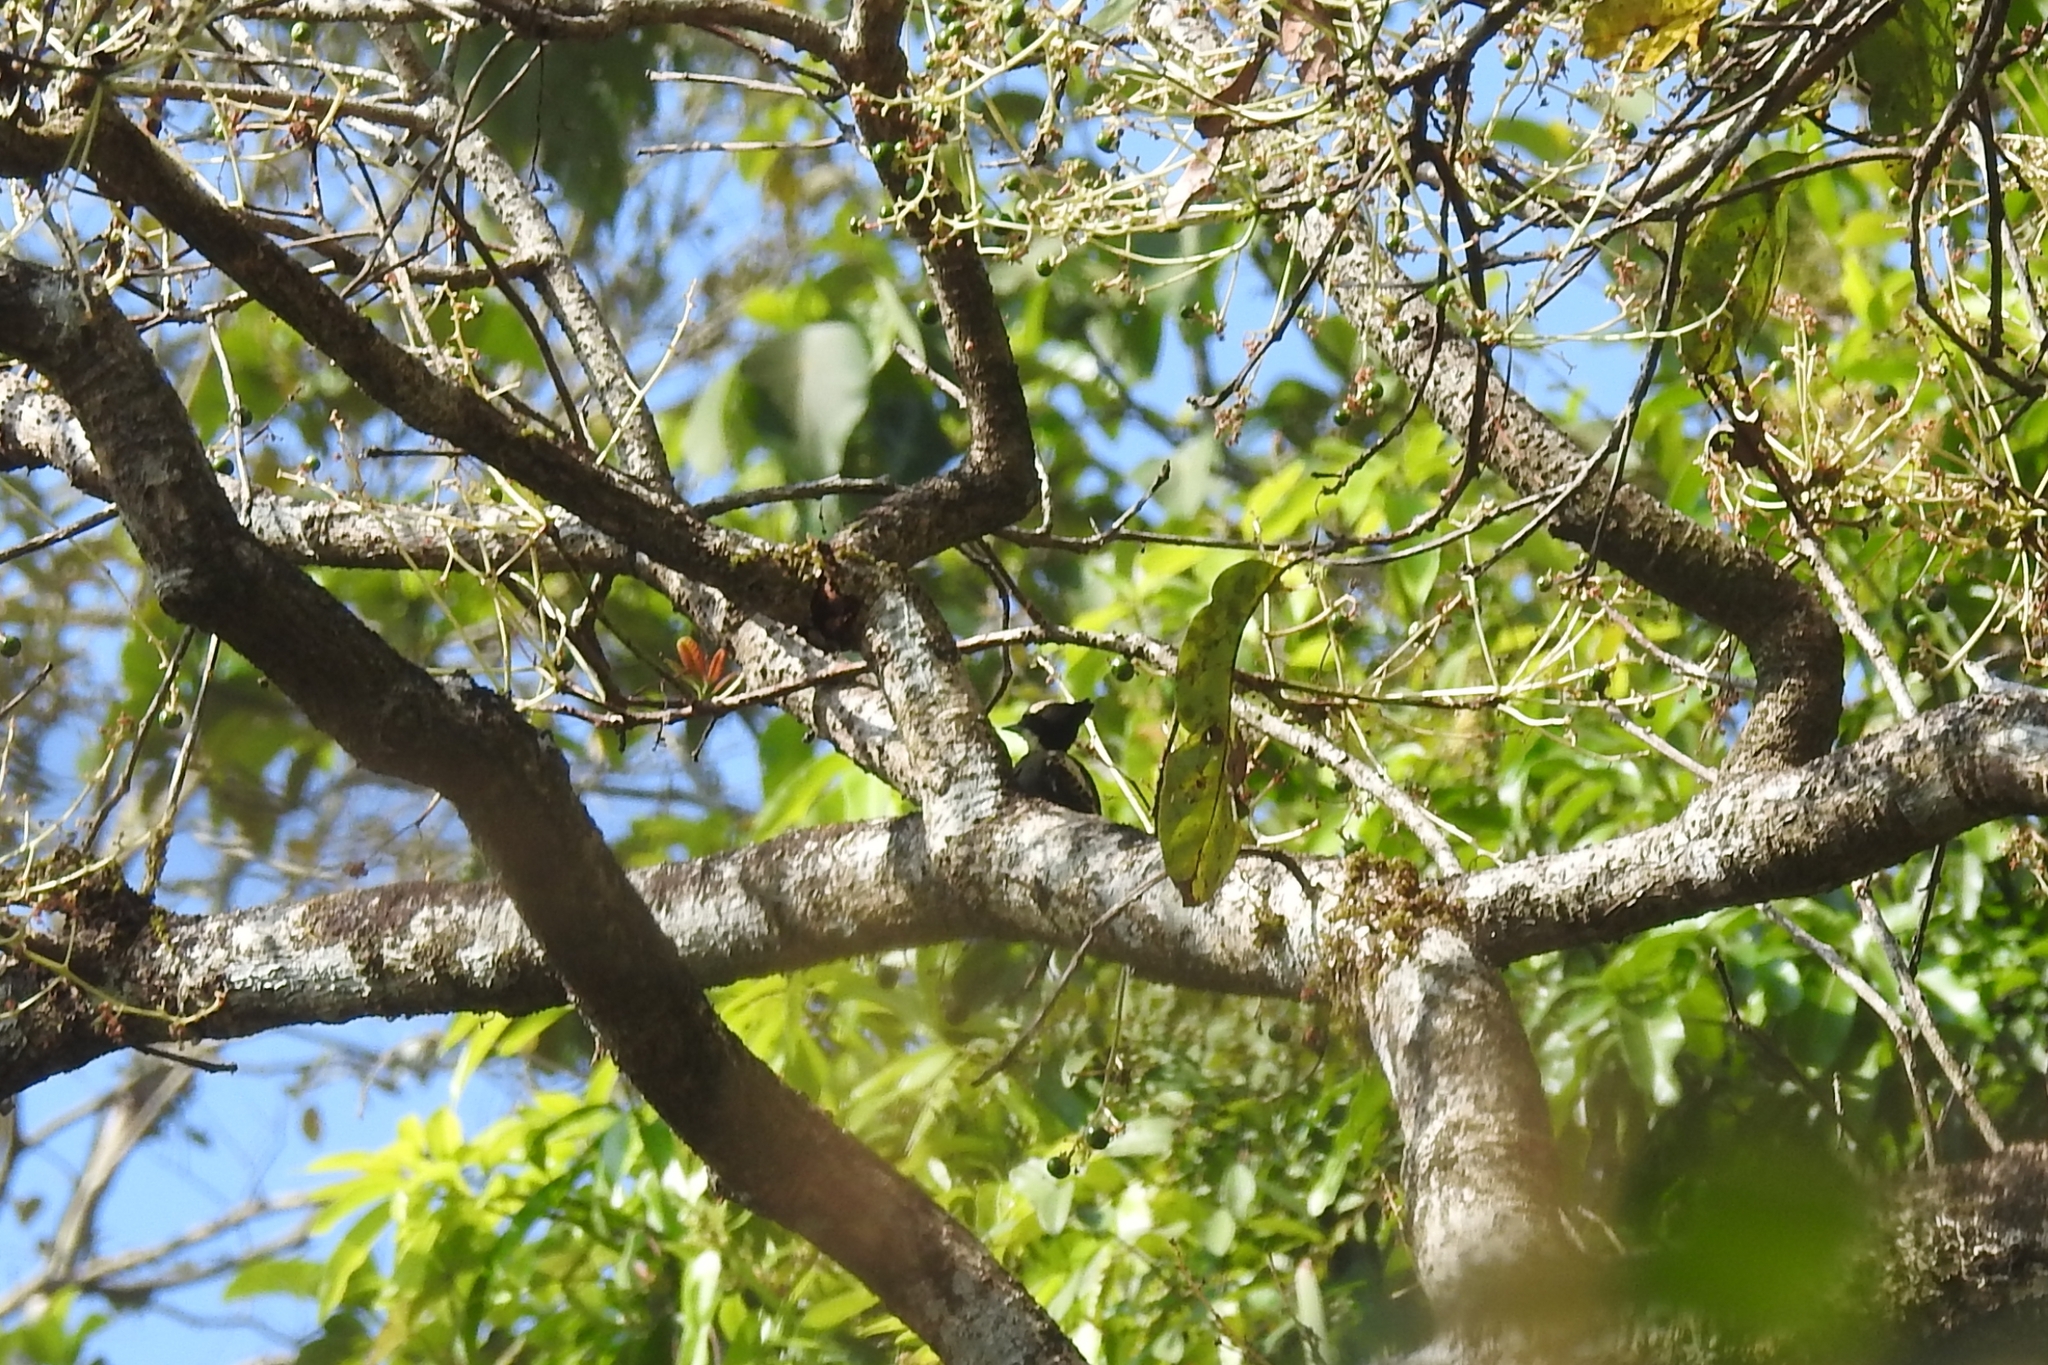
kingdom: Animalia
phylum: Chordata
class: Aves
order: Piciformes
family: Picidae
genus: Hemicircus
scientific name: Hemicircus canente
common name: Heart-spotted woodpecker
